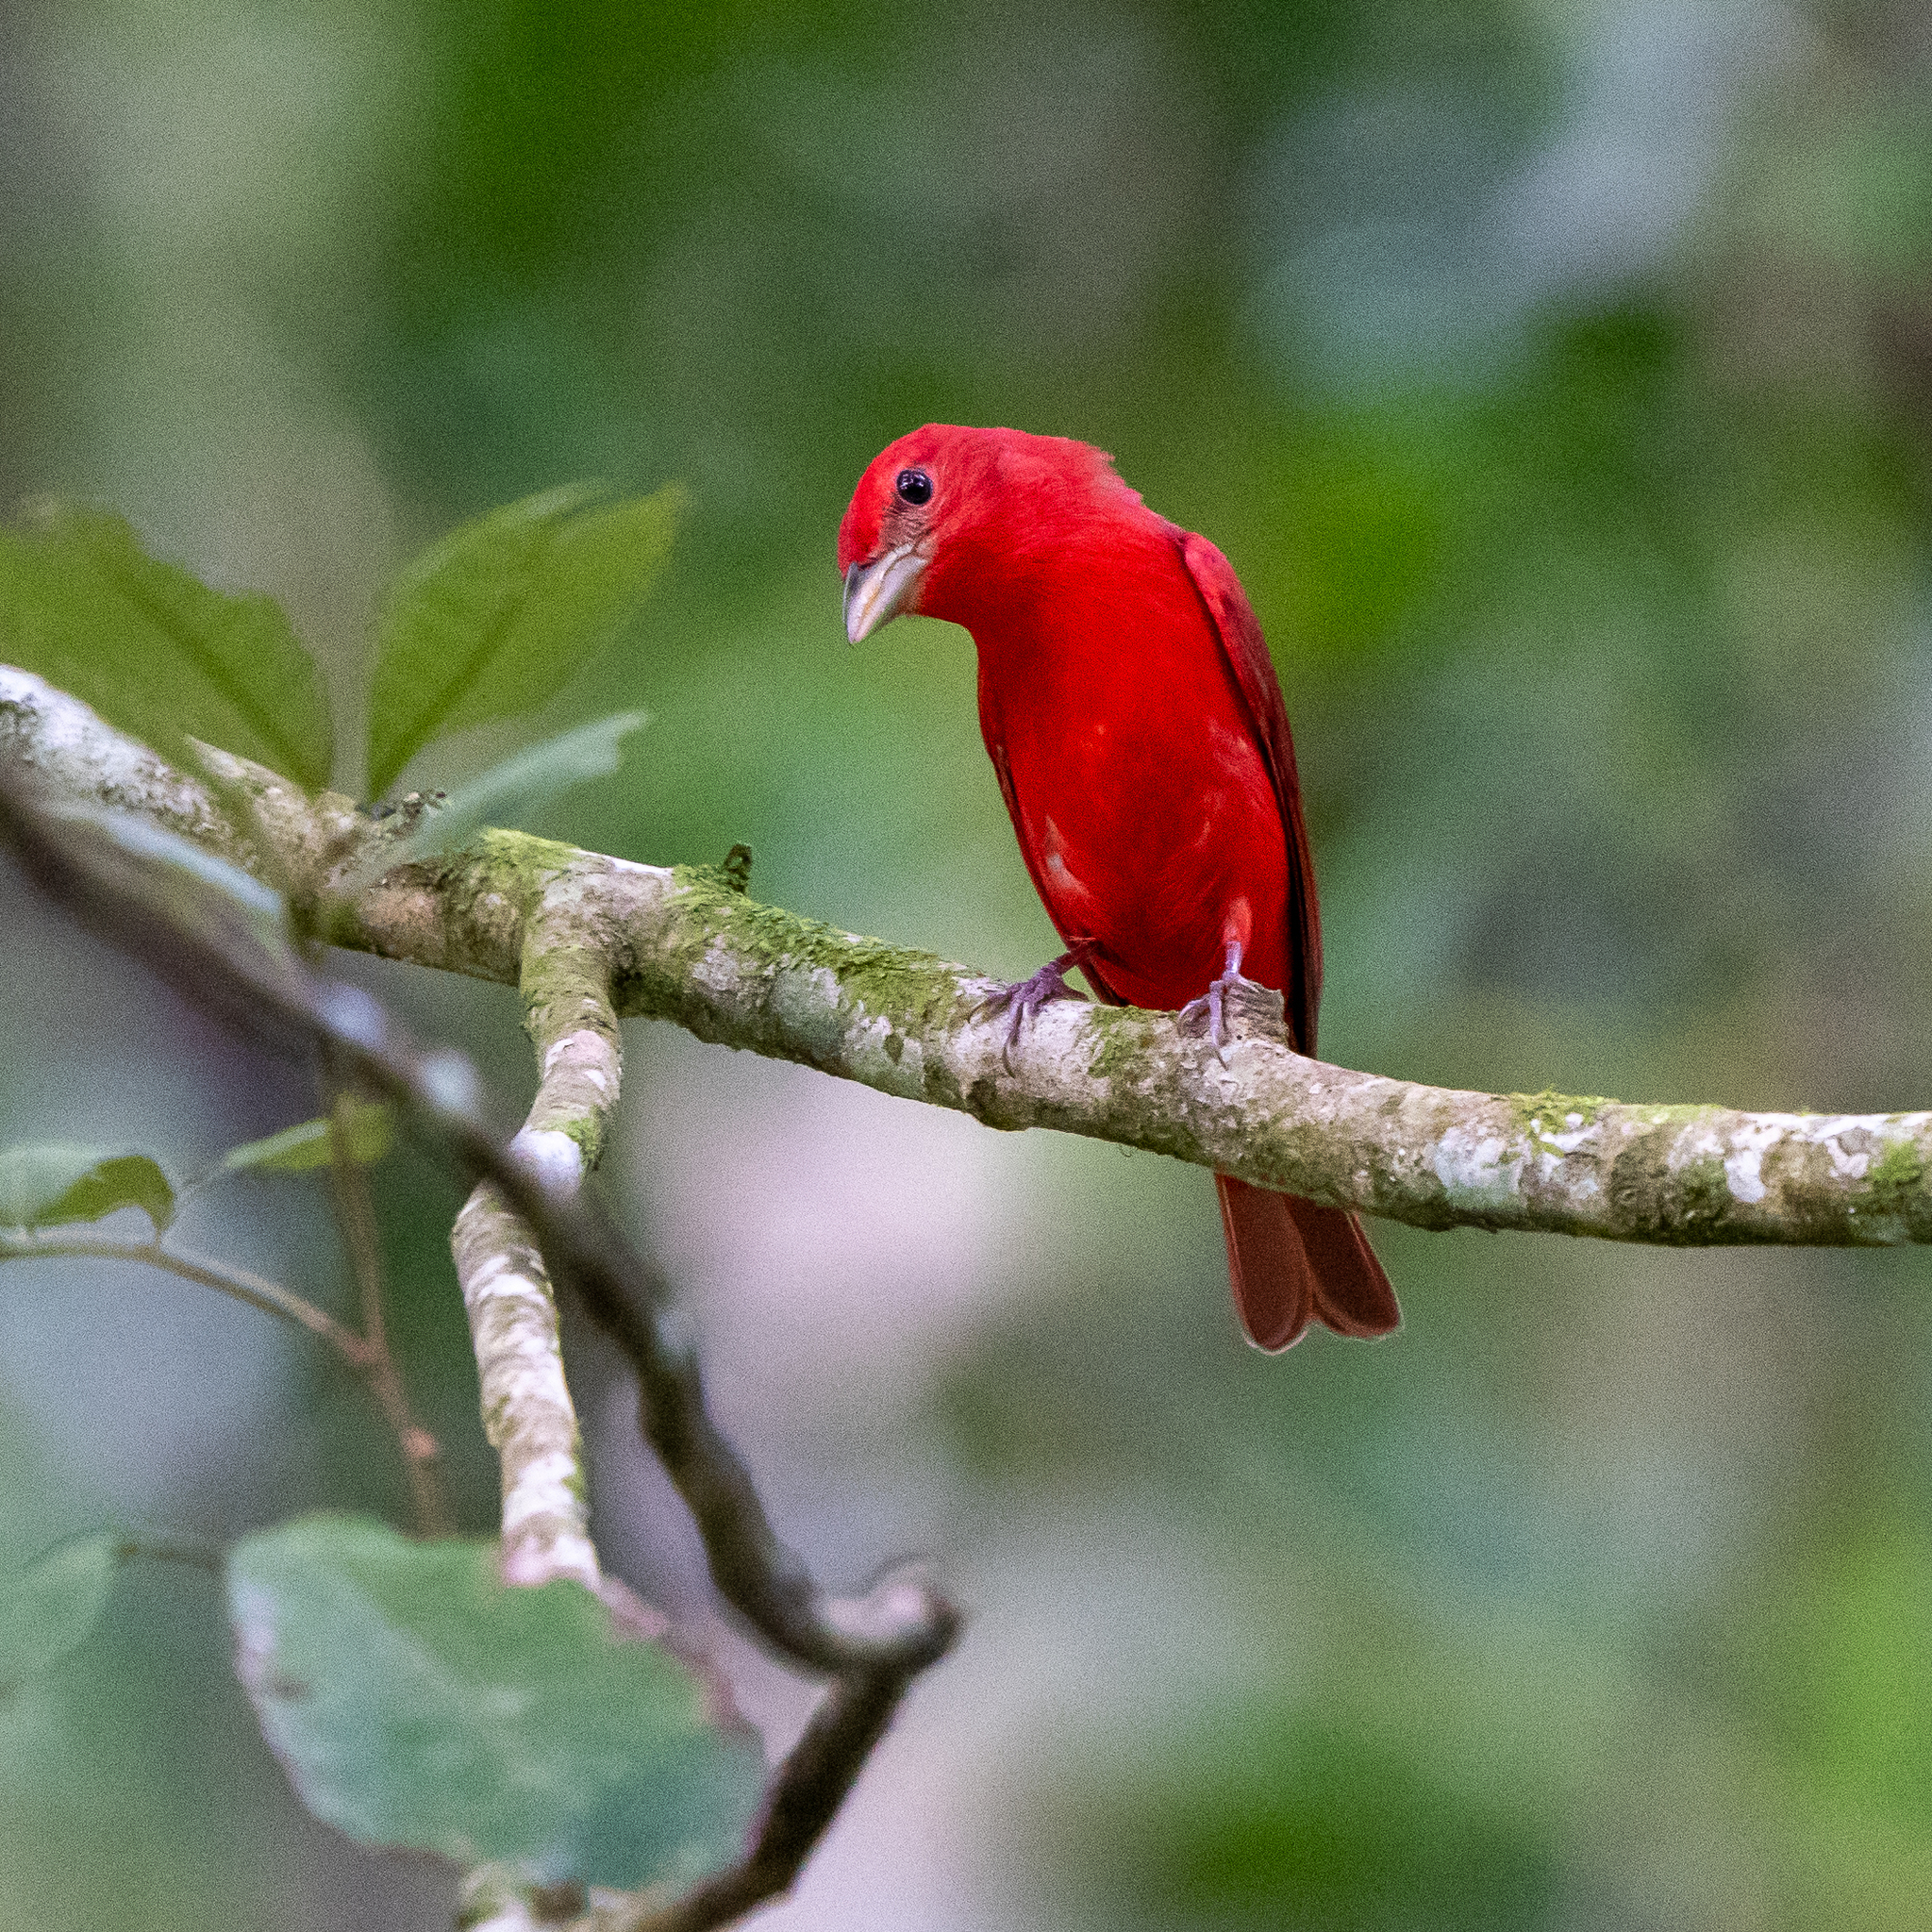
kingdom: Animalia
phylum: Chordata
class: Aves
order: Passeriformes
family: Cardinalidae
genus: Piranga
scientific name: Piranga rubra
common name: Summer tanager
